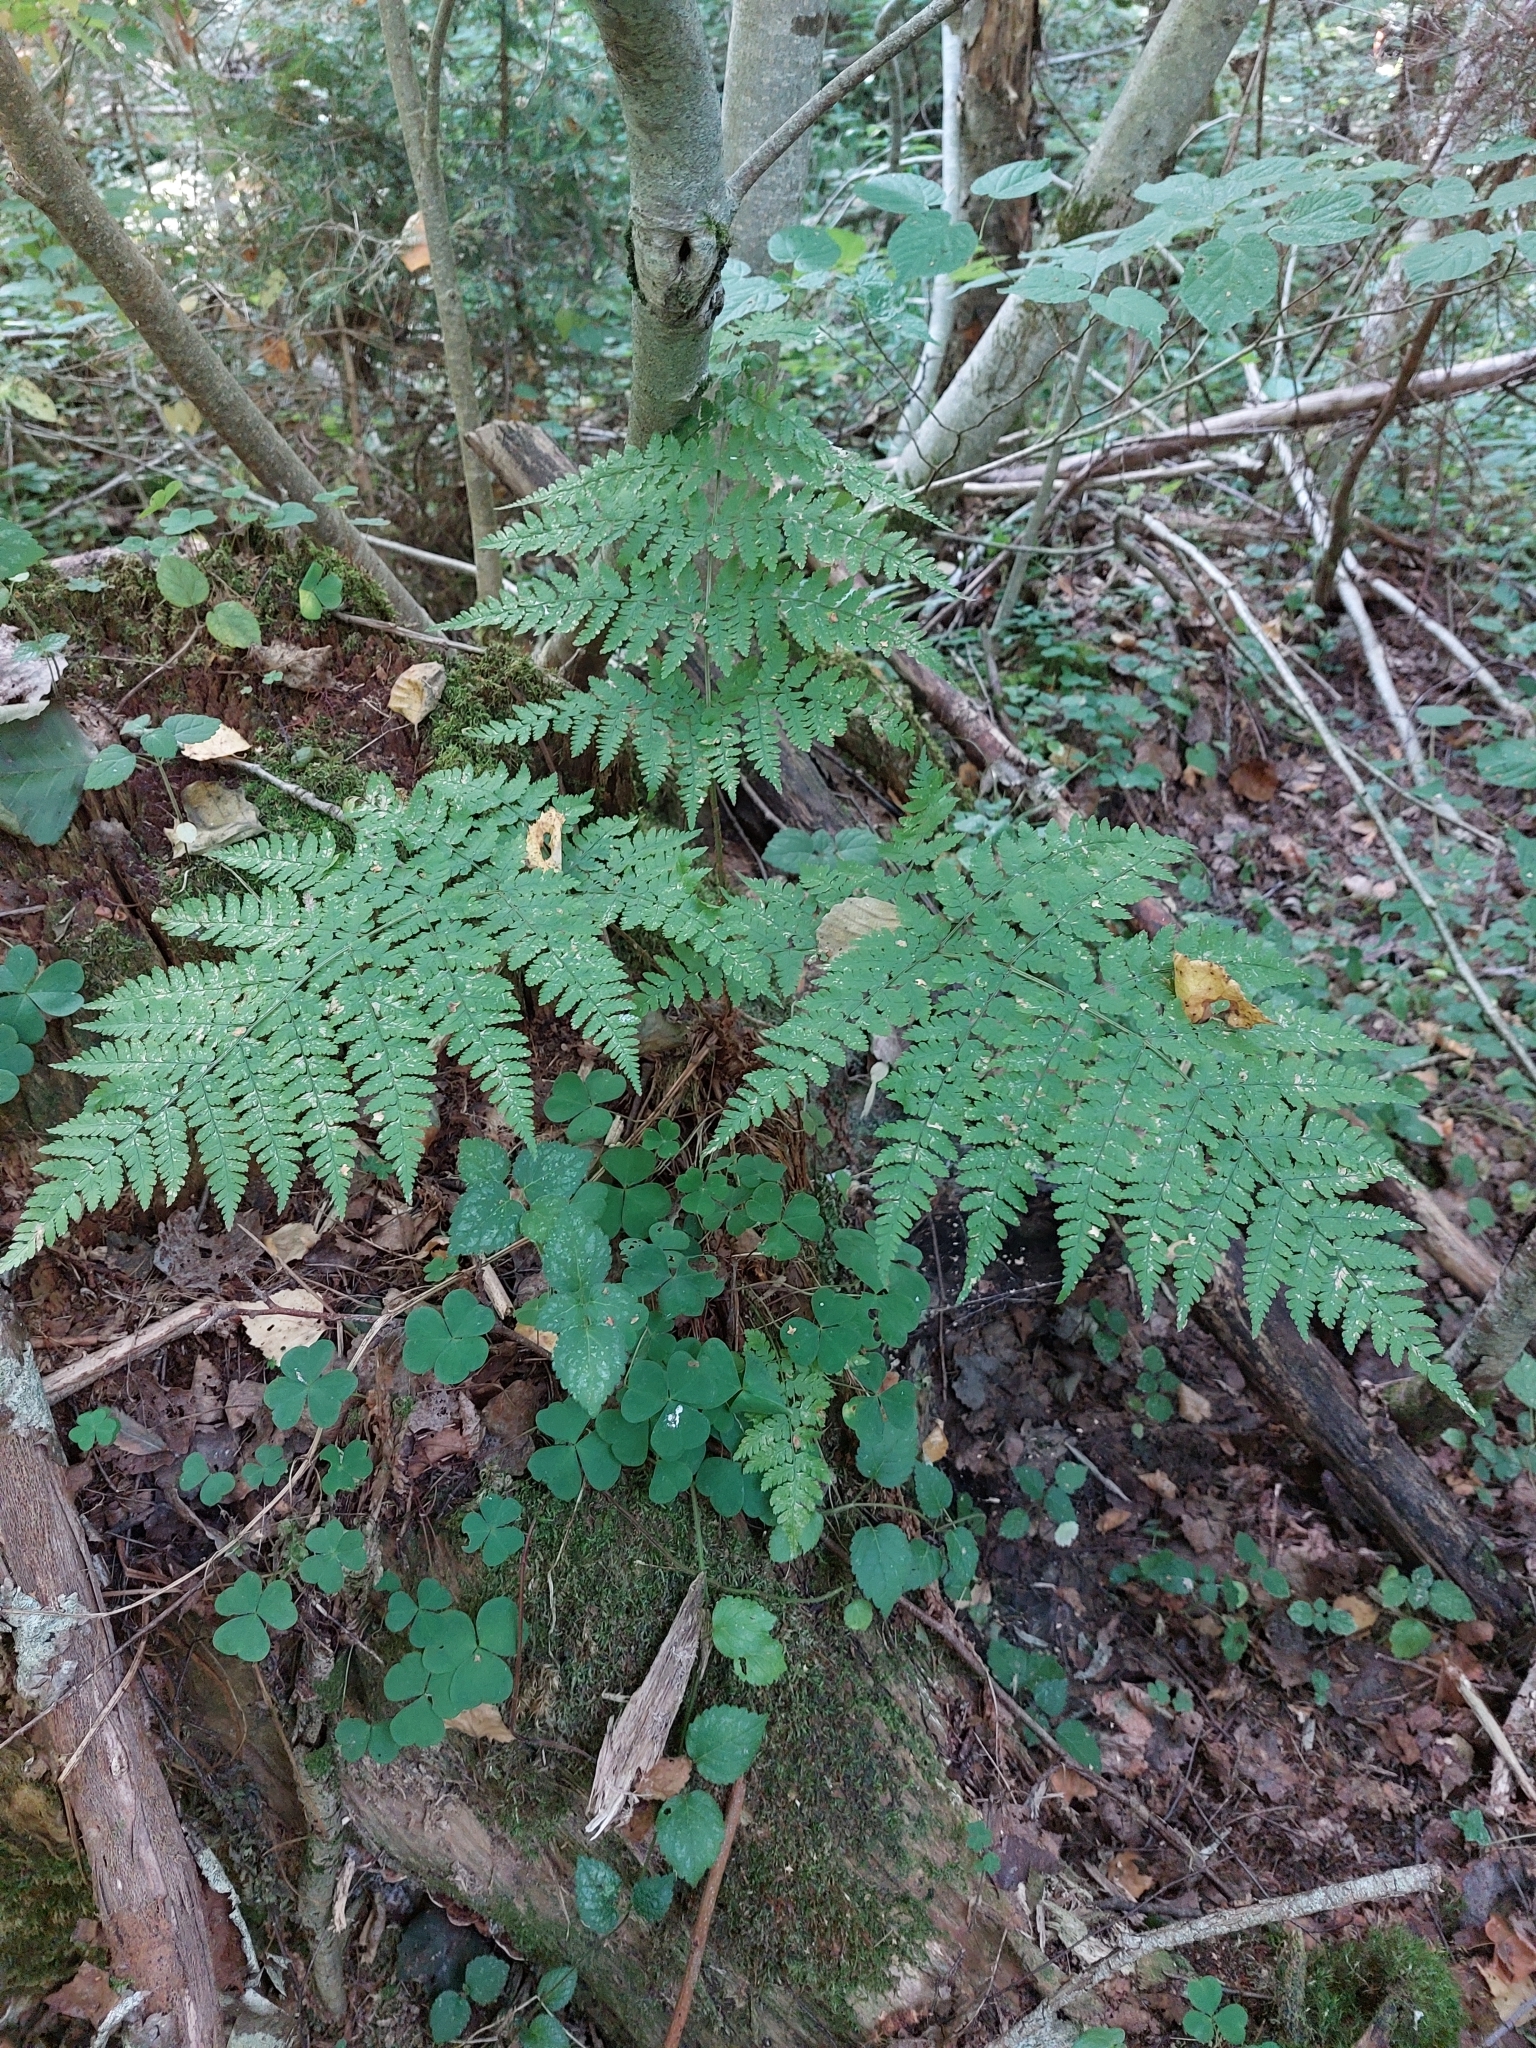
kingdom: Plantae
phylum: Tracheophyta
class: Polypodiopsida
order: Polypodiales
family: Dryopteridaceae
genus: Dryopteris
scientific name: Dryopteris carthusiana
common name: Narrow buckler-fern
